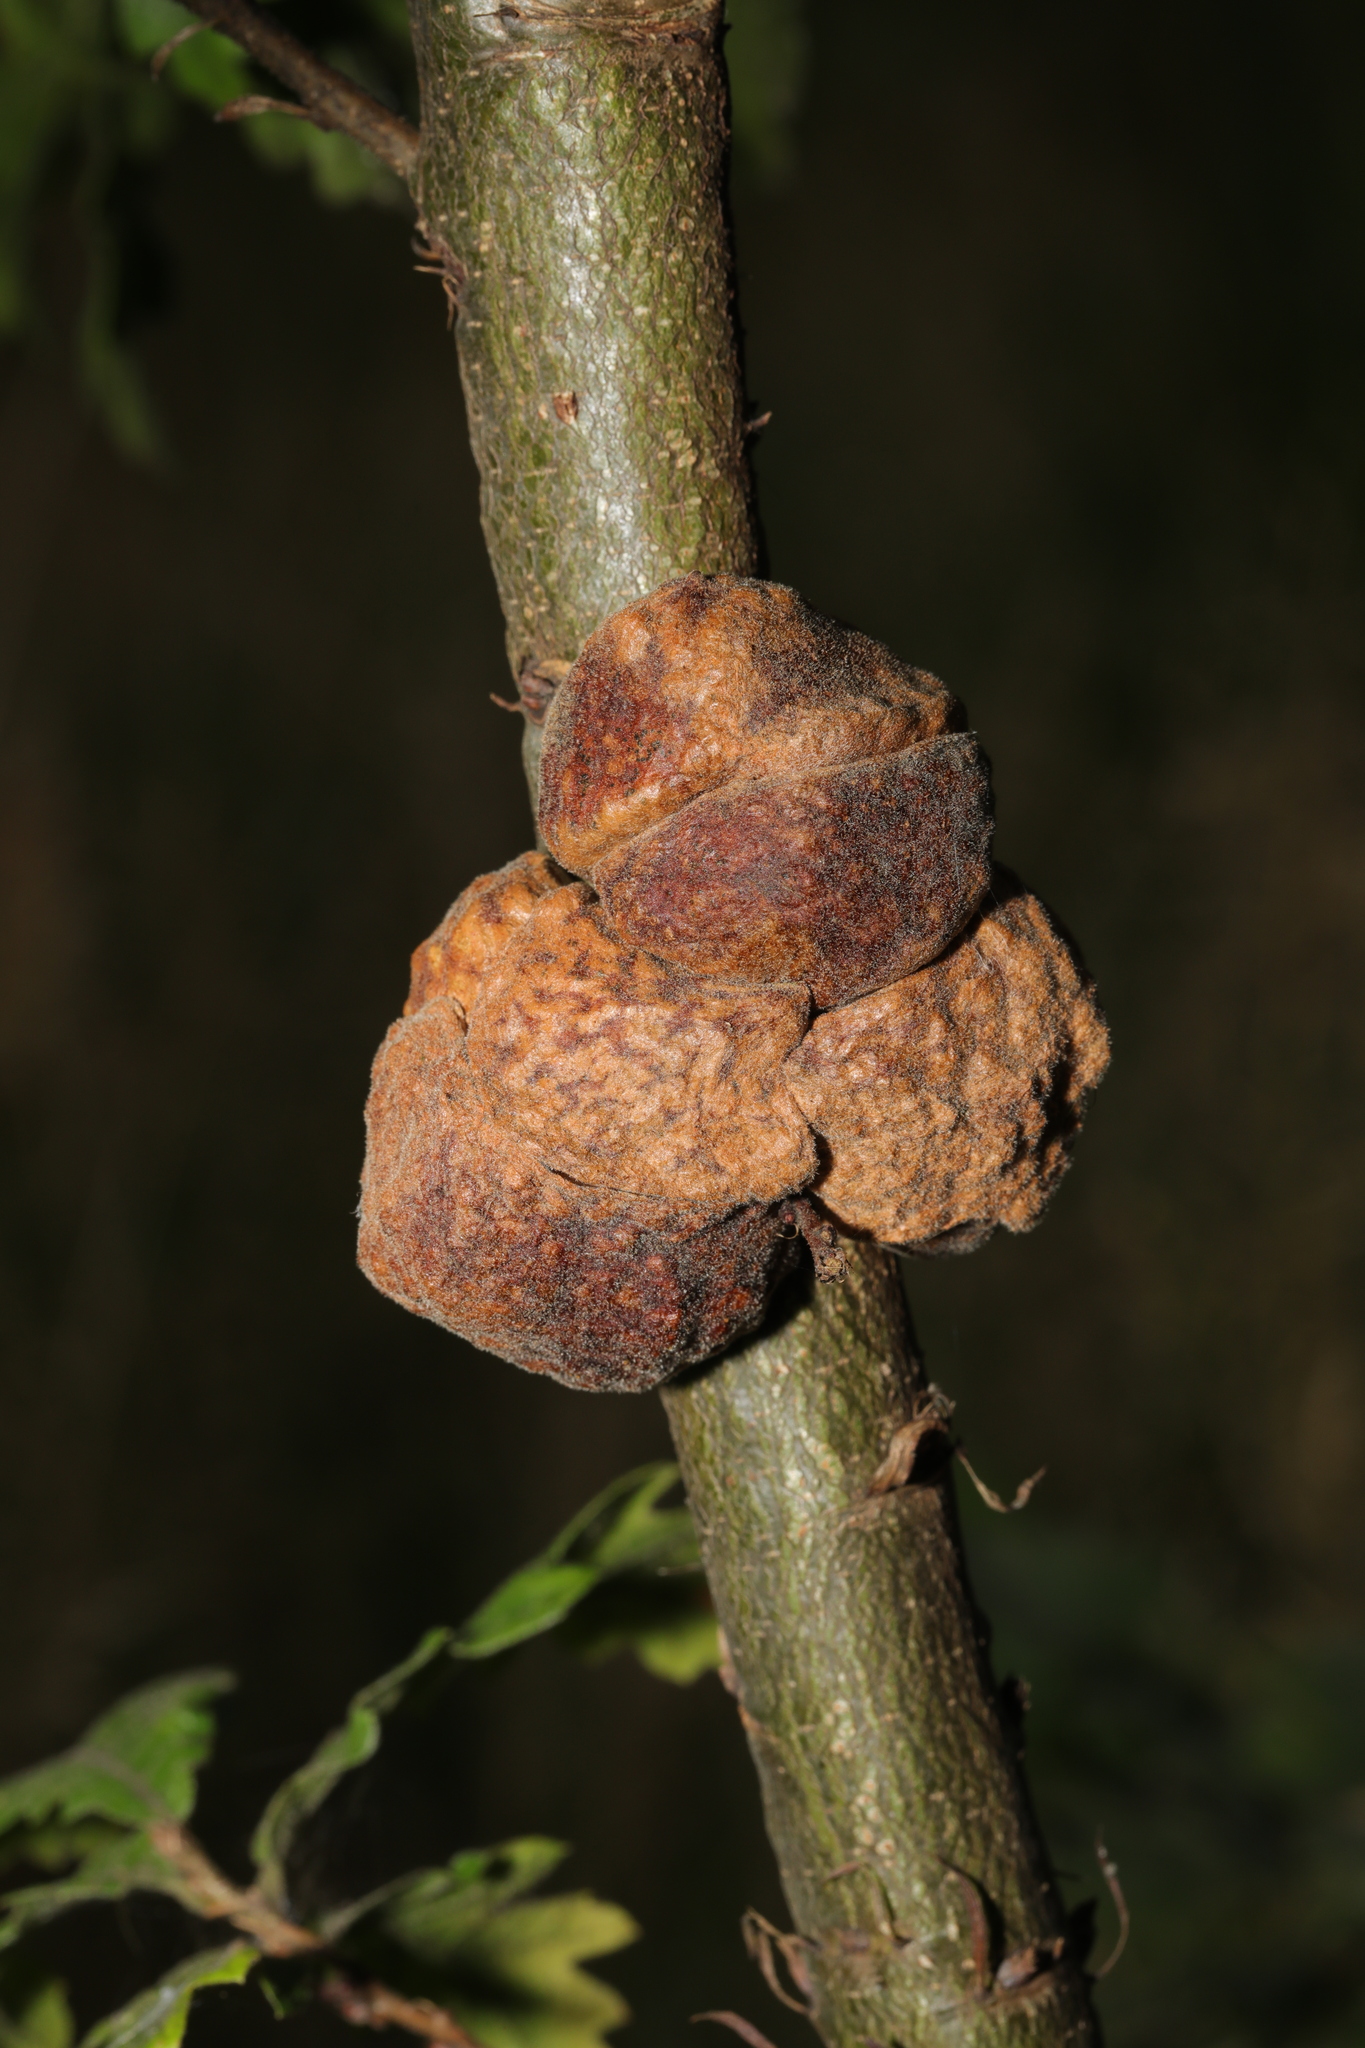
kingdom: Animalia
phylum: Arthropoda
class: Insecta
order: Hymenoptera
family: Cynipidae
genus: Aphelonyx
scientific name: Aphelonyx cerricola
